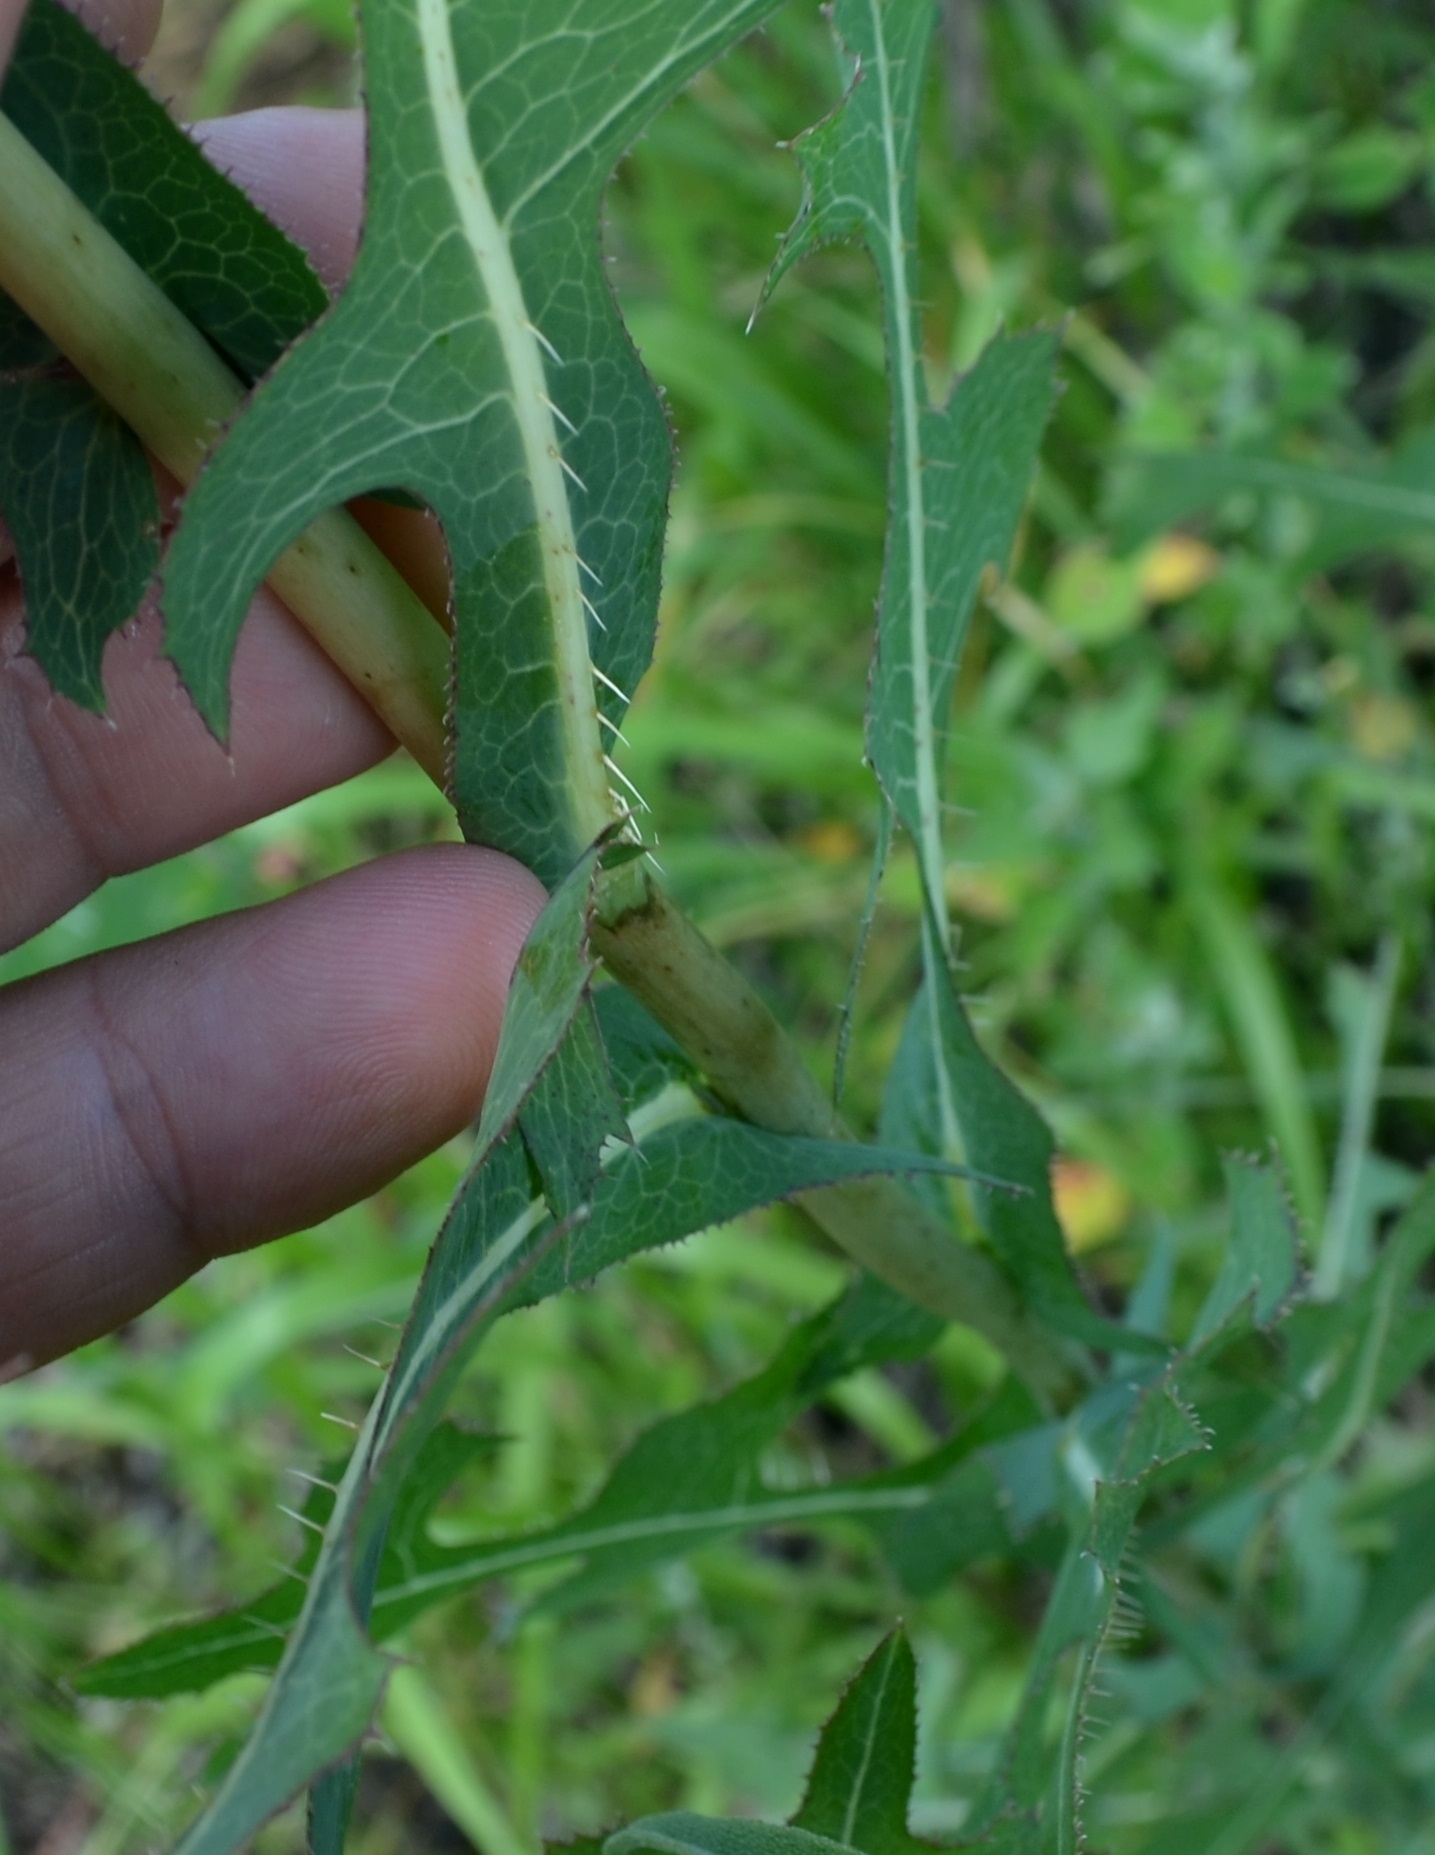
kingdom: Plantae
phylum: Tracheophyta
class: Magnoliopsida
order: Asterales
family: Asteraceae
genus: Lactuca
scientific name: Lactuca serriola
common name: Prickly lettuce
